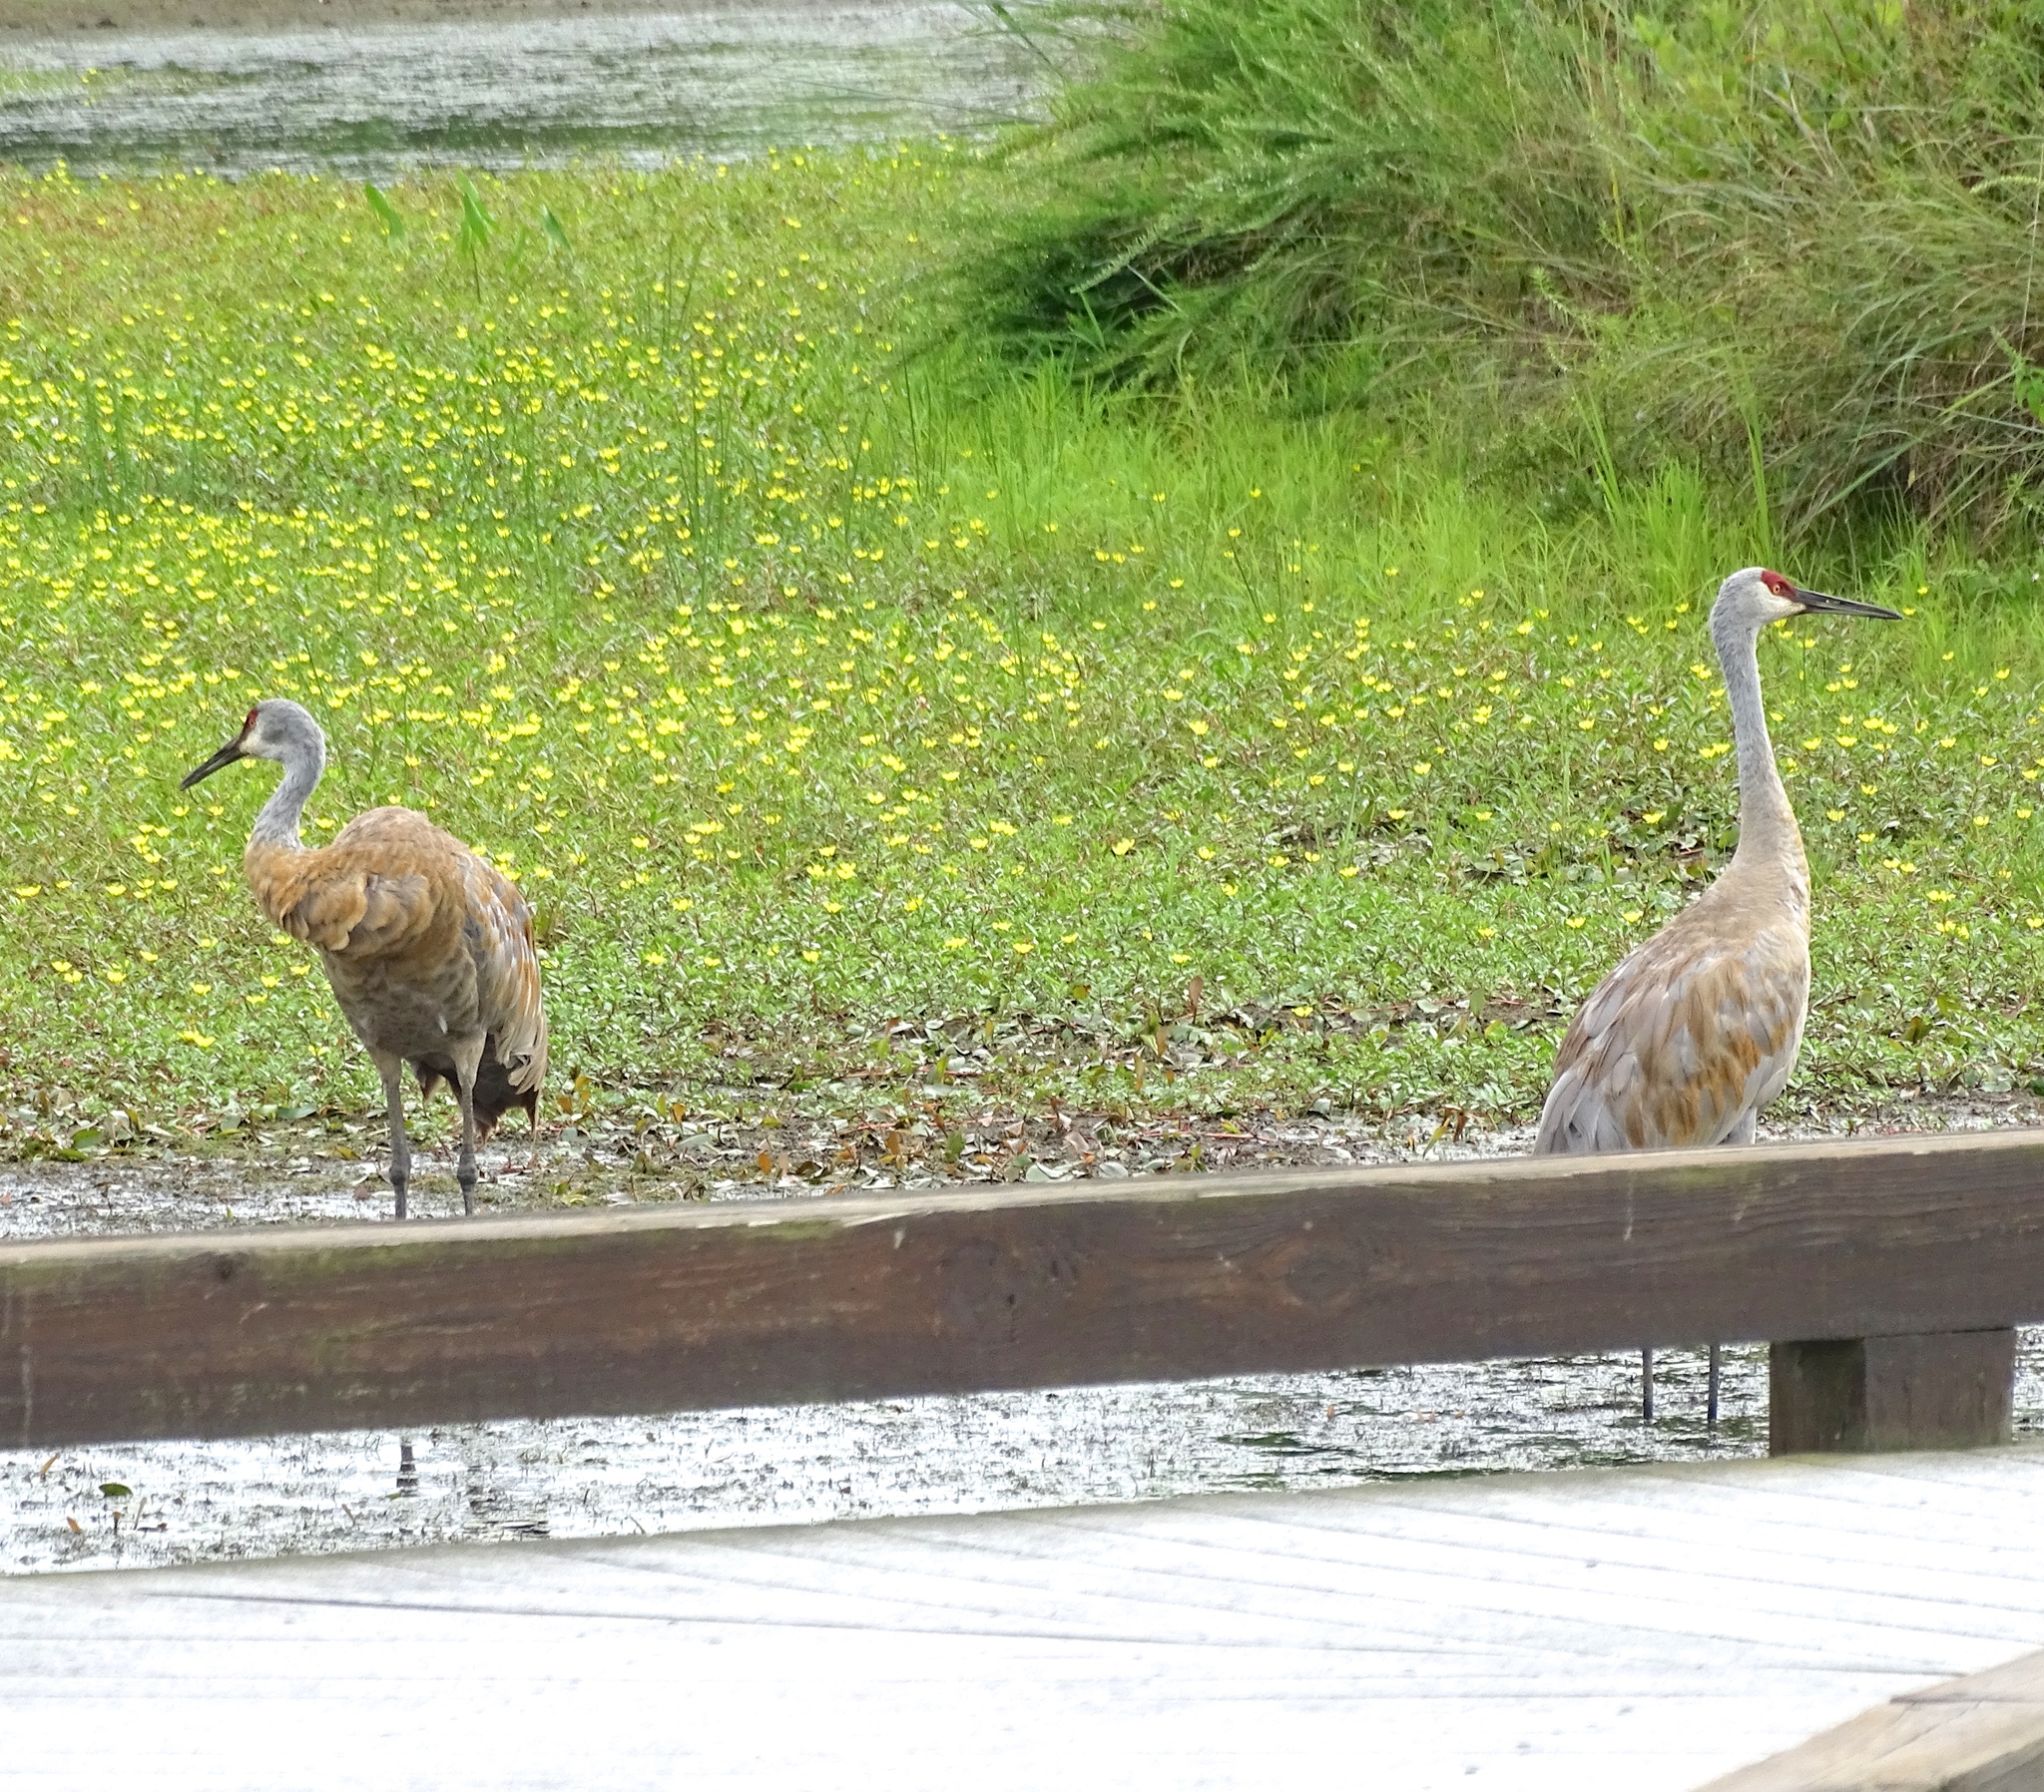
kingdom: Animalia
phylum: Chordata
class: Aves
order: Gruiformes
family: Gruidae
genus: Grus
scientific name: Grus canadensis
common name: Sandhill crane
